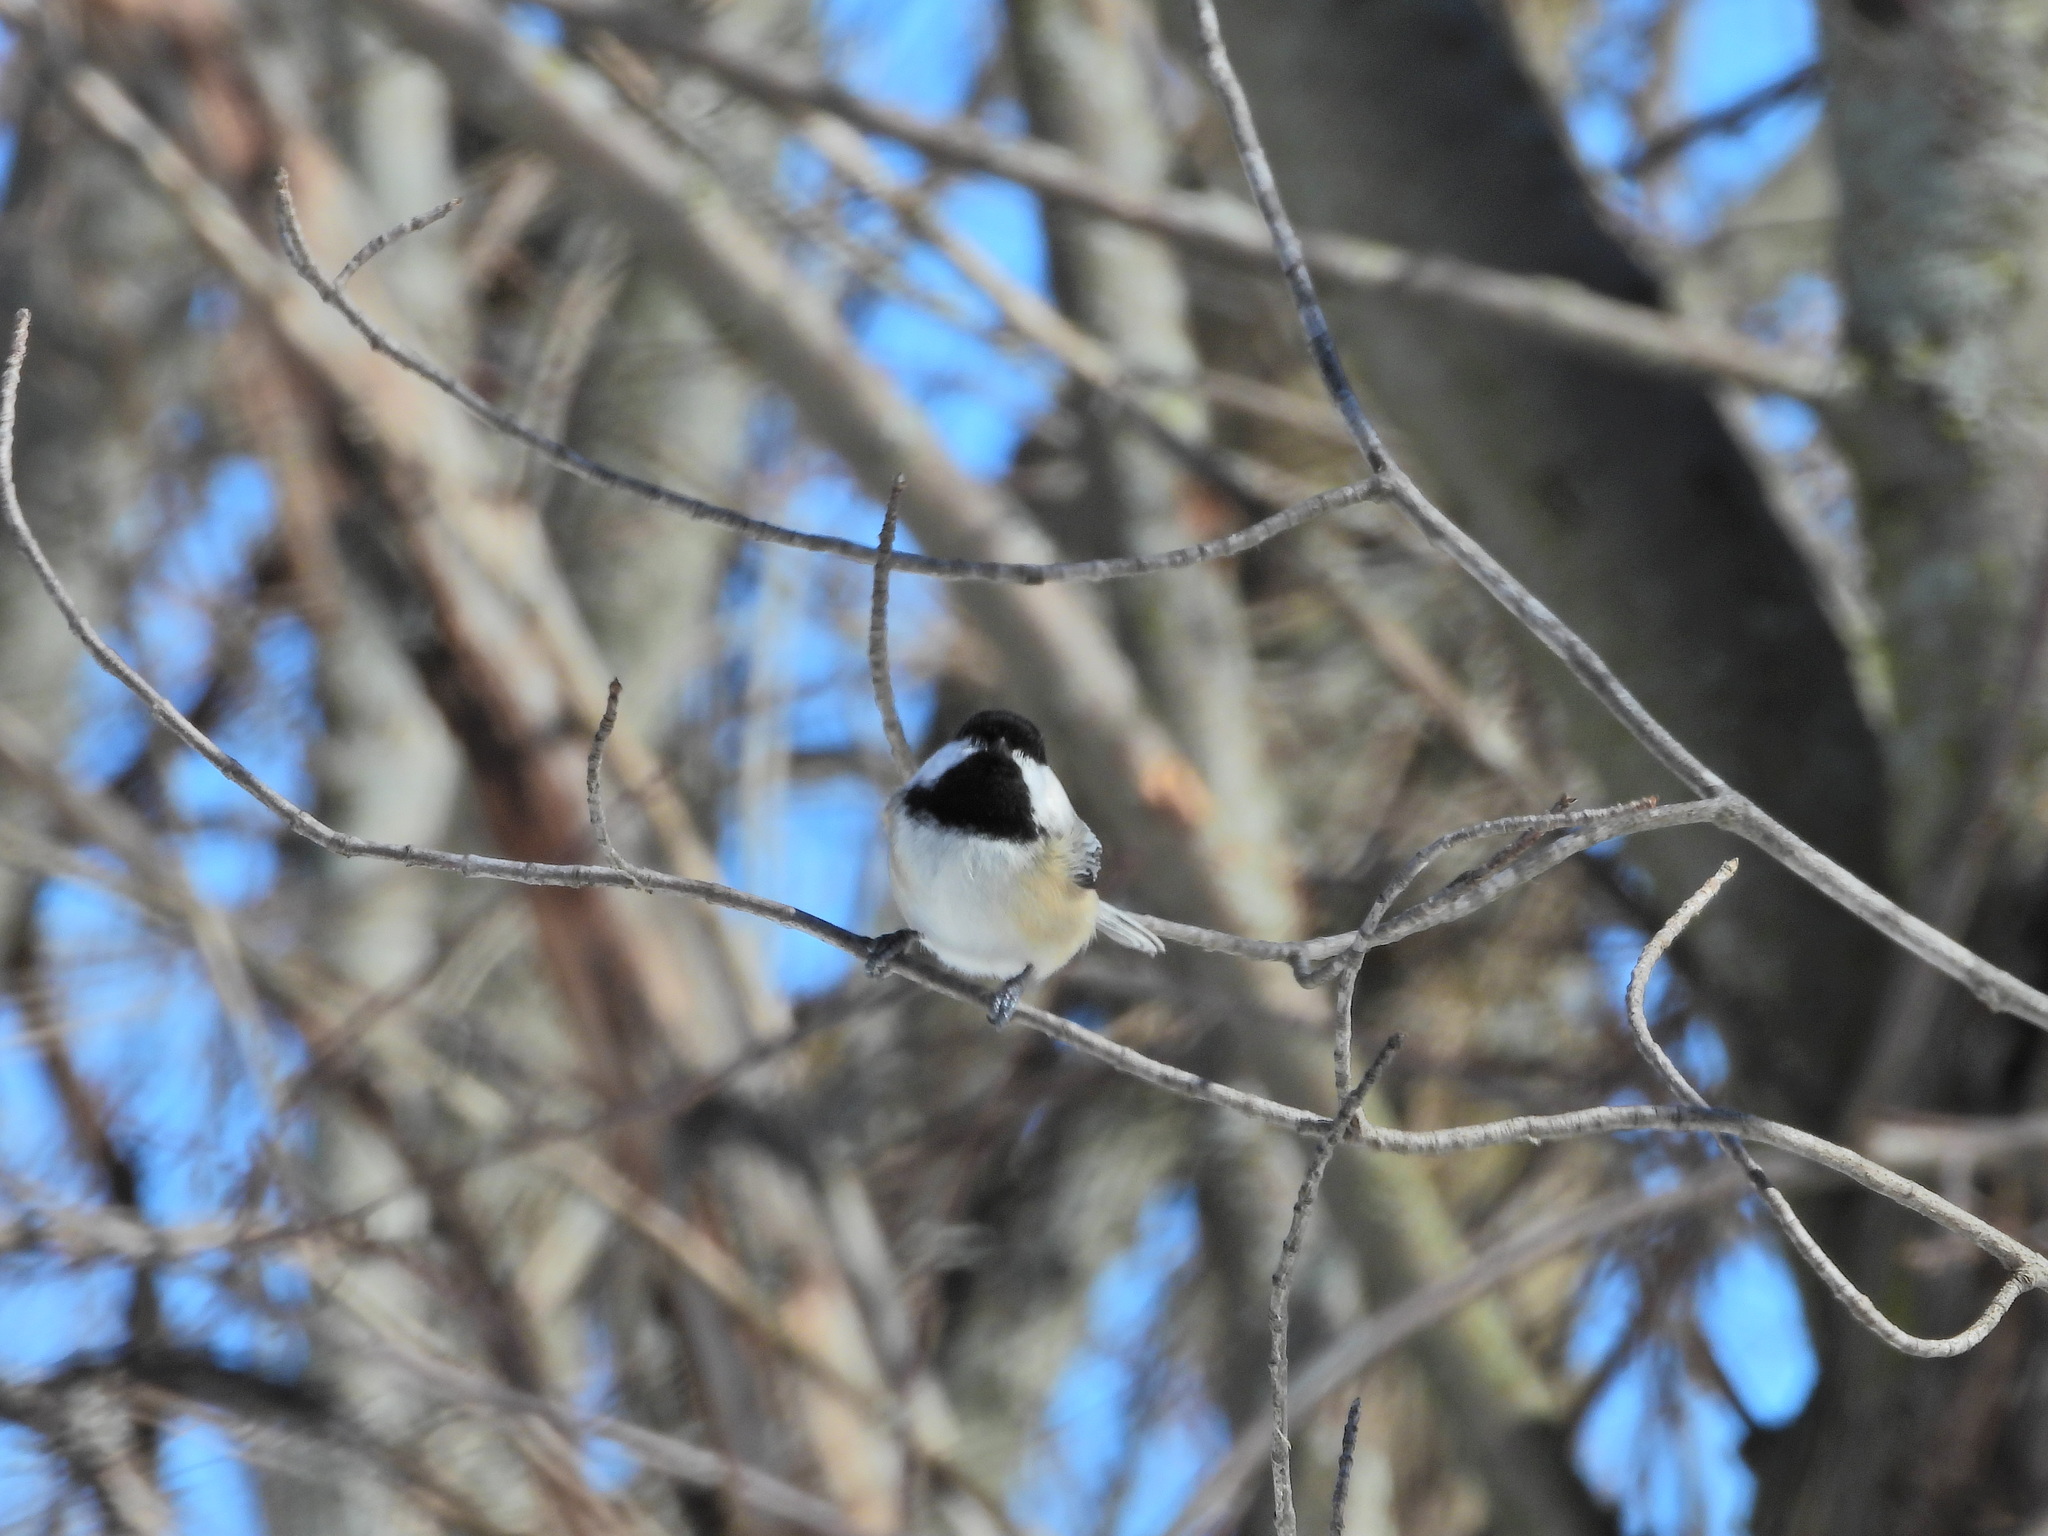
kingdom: Animalia
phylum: Chordata
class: Aves
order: Passeriformes
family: Paridae
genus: Poecile
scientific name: Poecile atricapillus
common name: Black-capped chickadee
